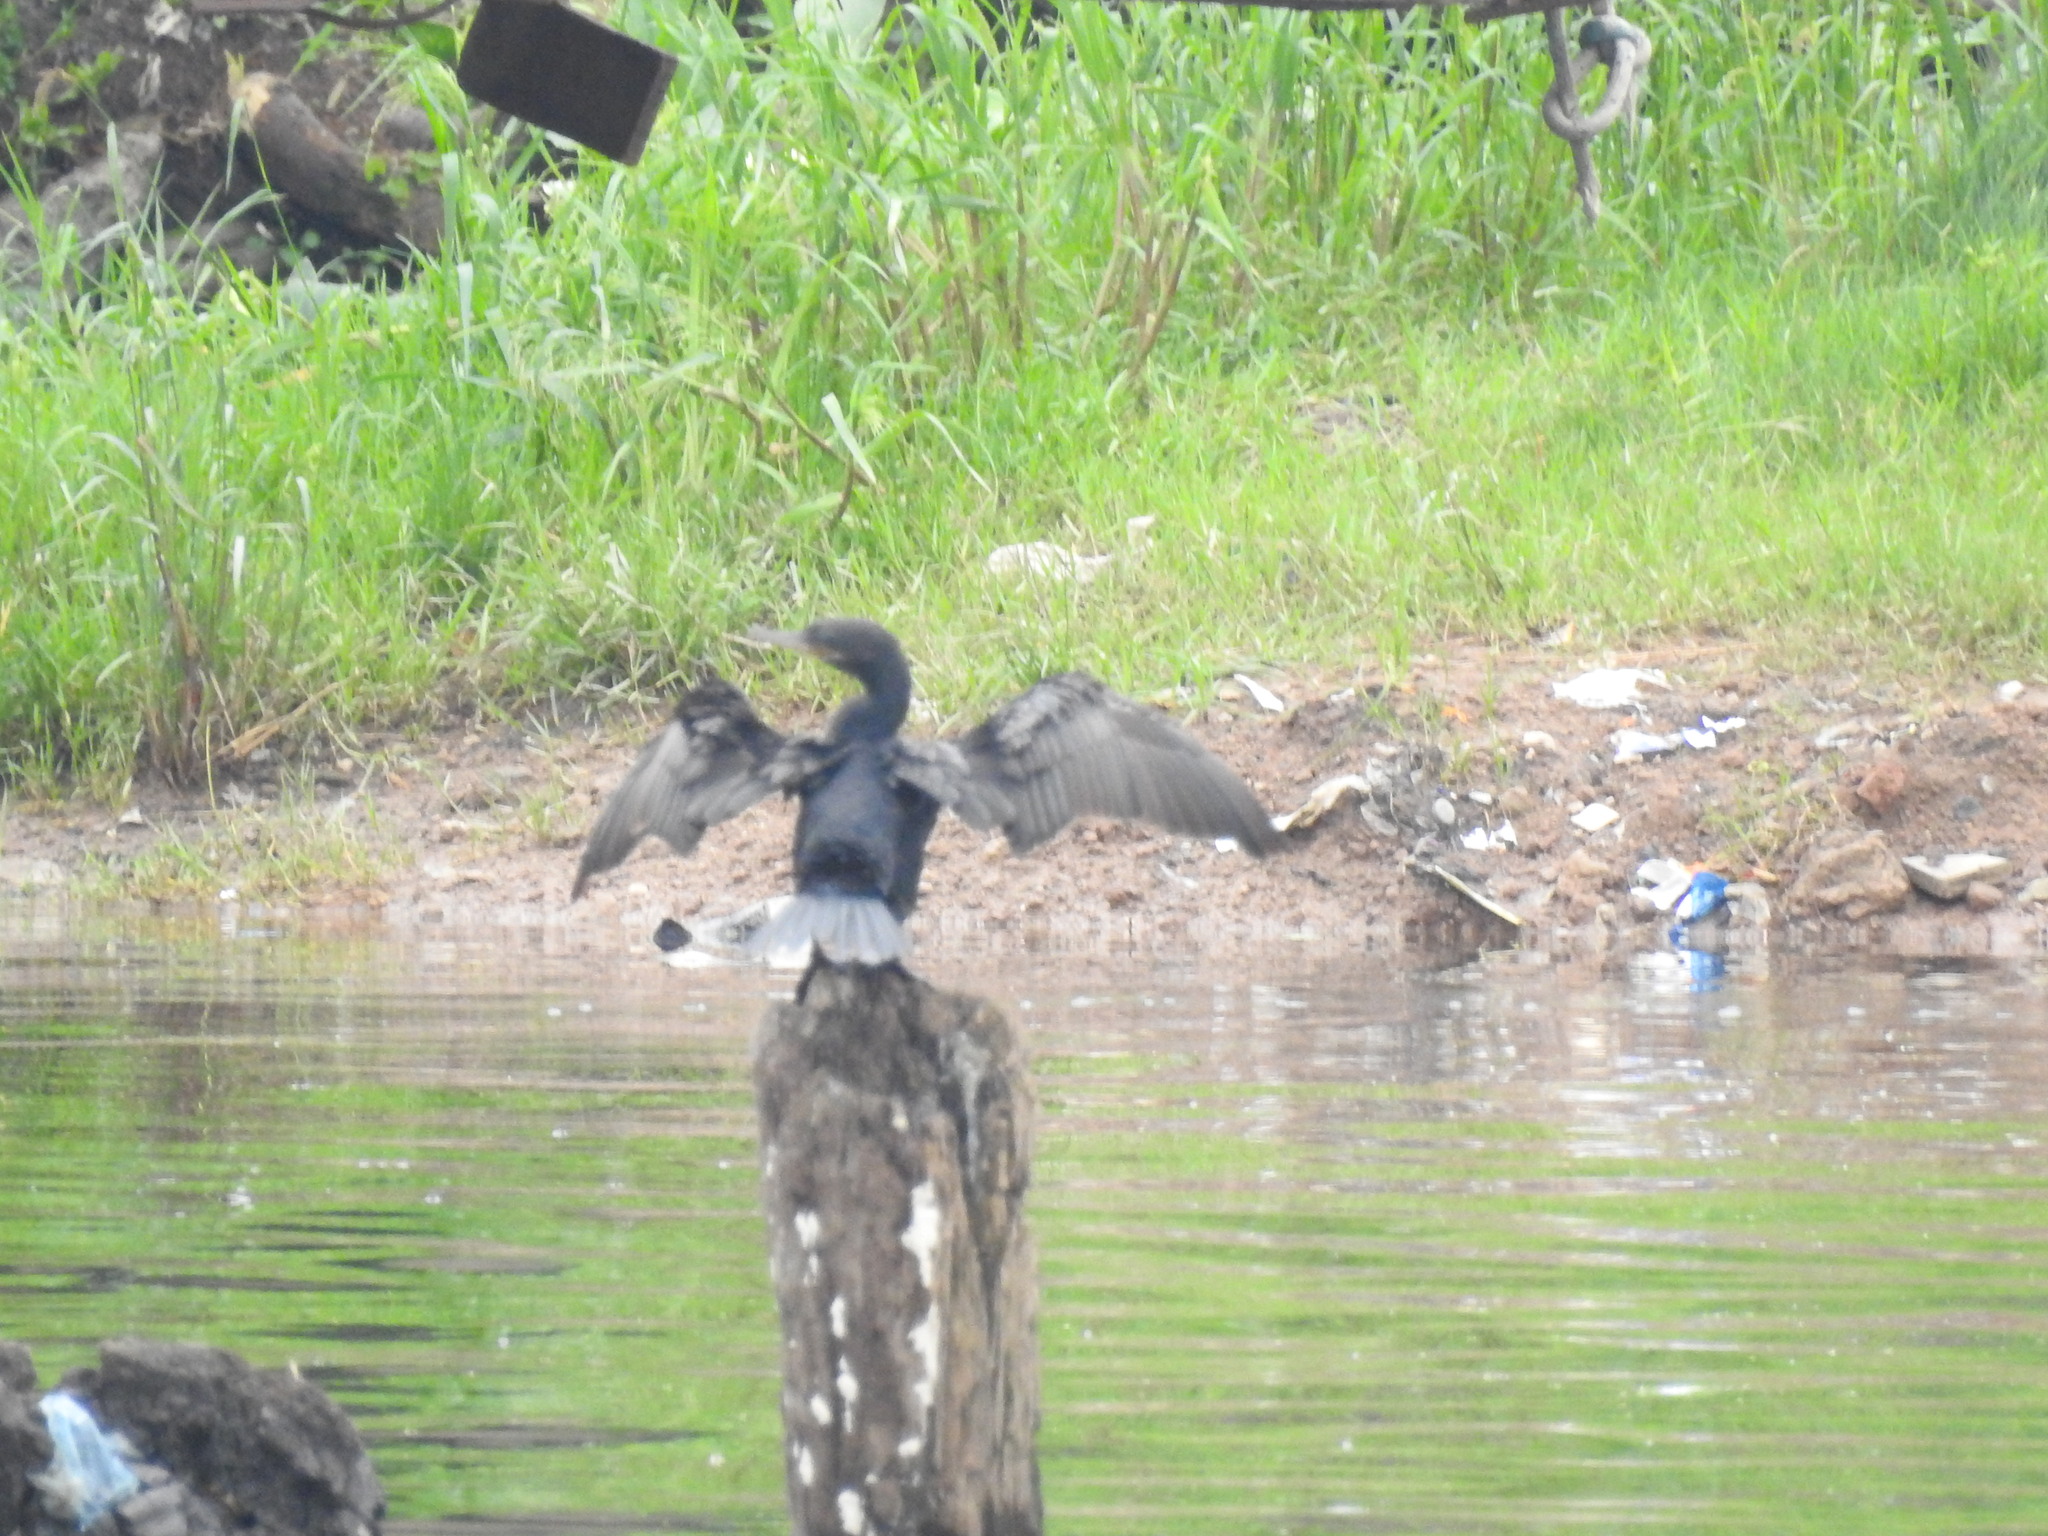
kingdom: Animalia
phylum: Chordata
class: Aves
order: Suliformes
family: Phalacrocoracidae
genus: Phalacrocorax
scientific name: Phalacrocorax brasilianus
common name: Neotropic cormorant
